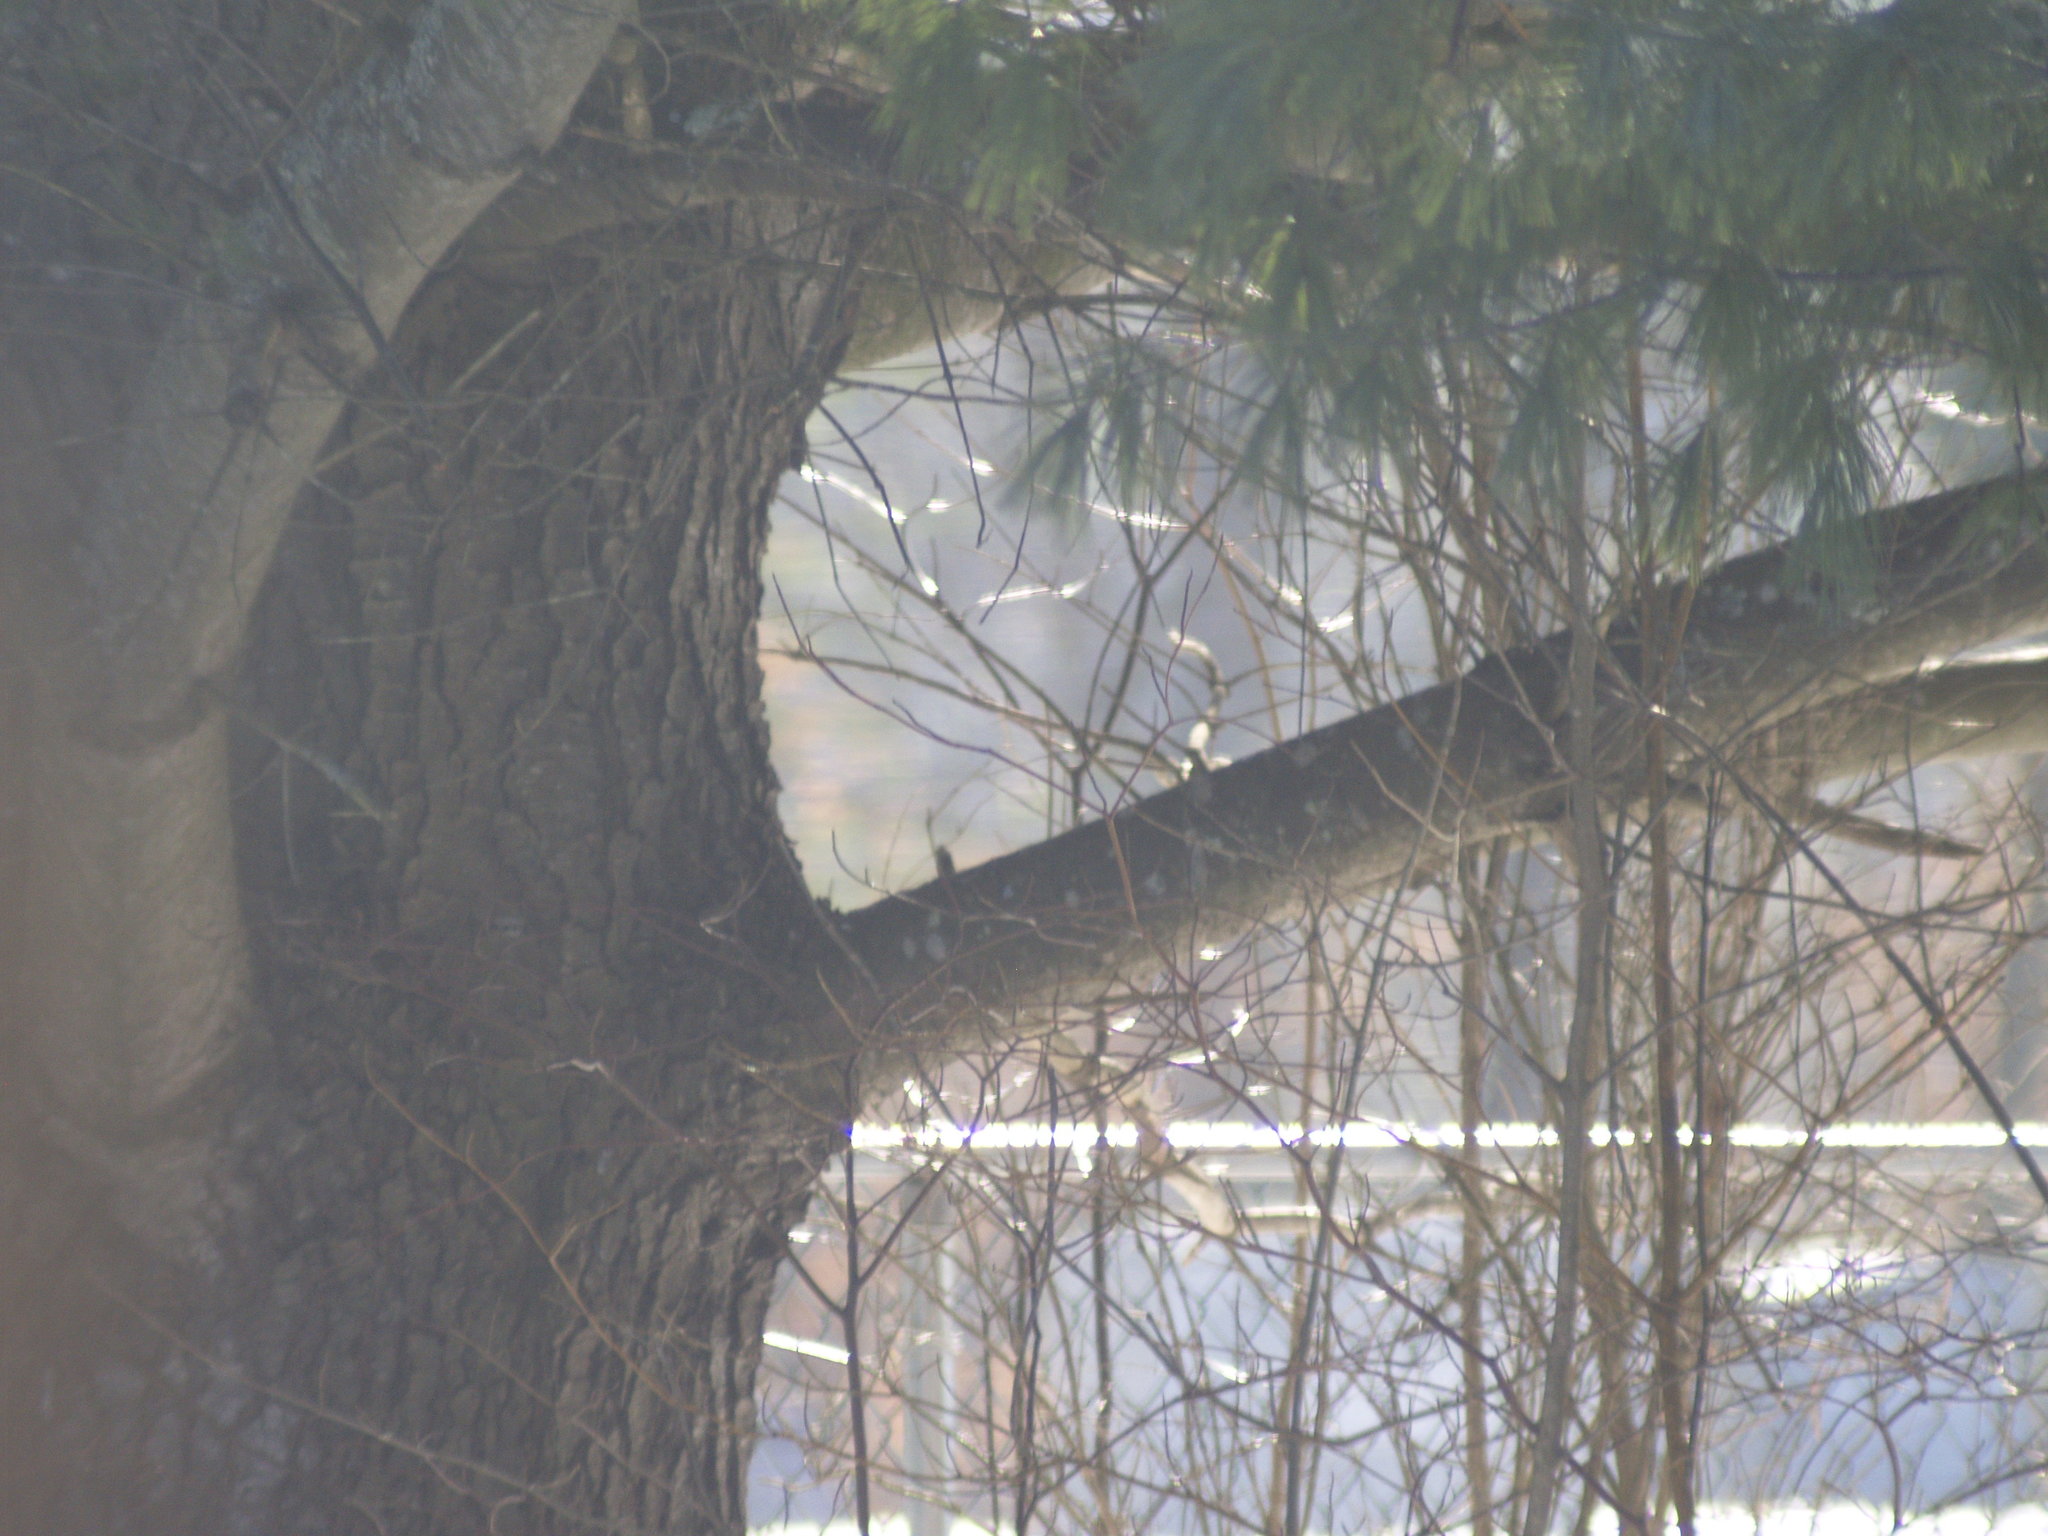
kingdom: Plantae
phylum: Tracheophyta
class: Pinopsida
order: Pinales
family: Pinaceae
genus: Pinus
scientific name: Pinus strobus
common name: Weymouth pine
